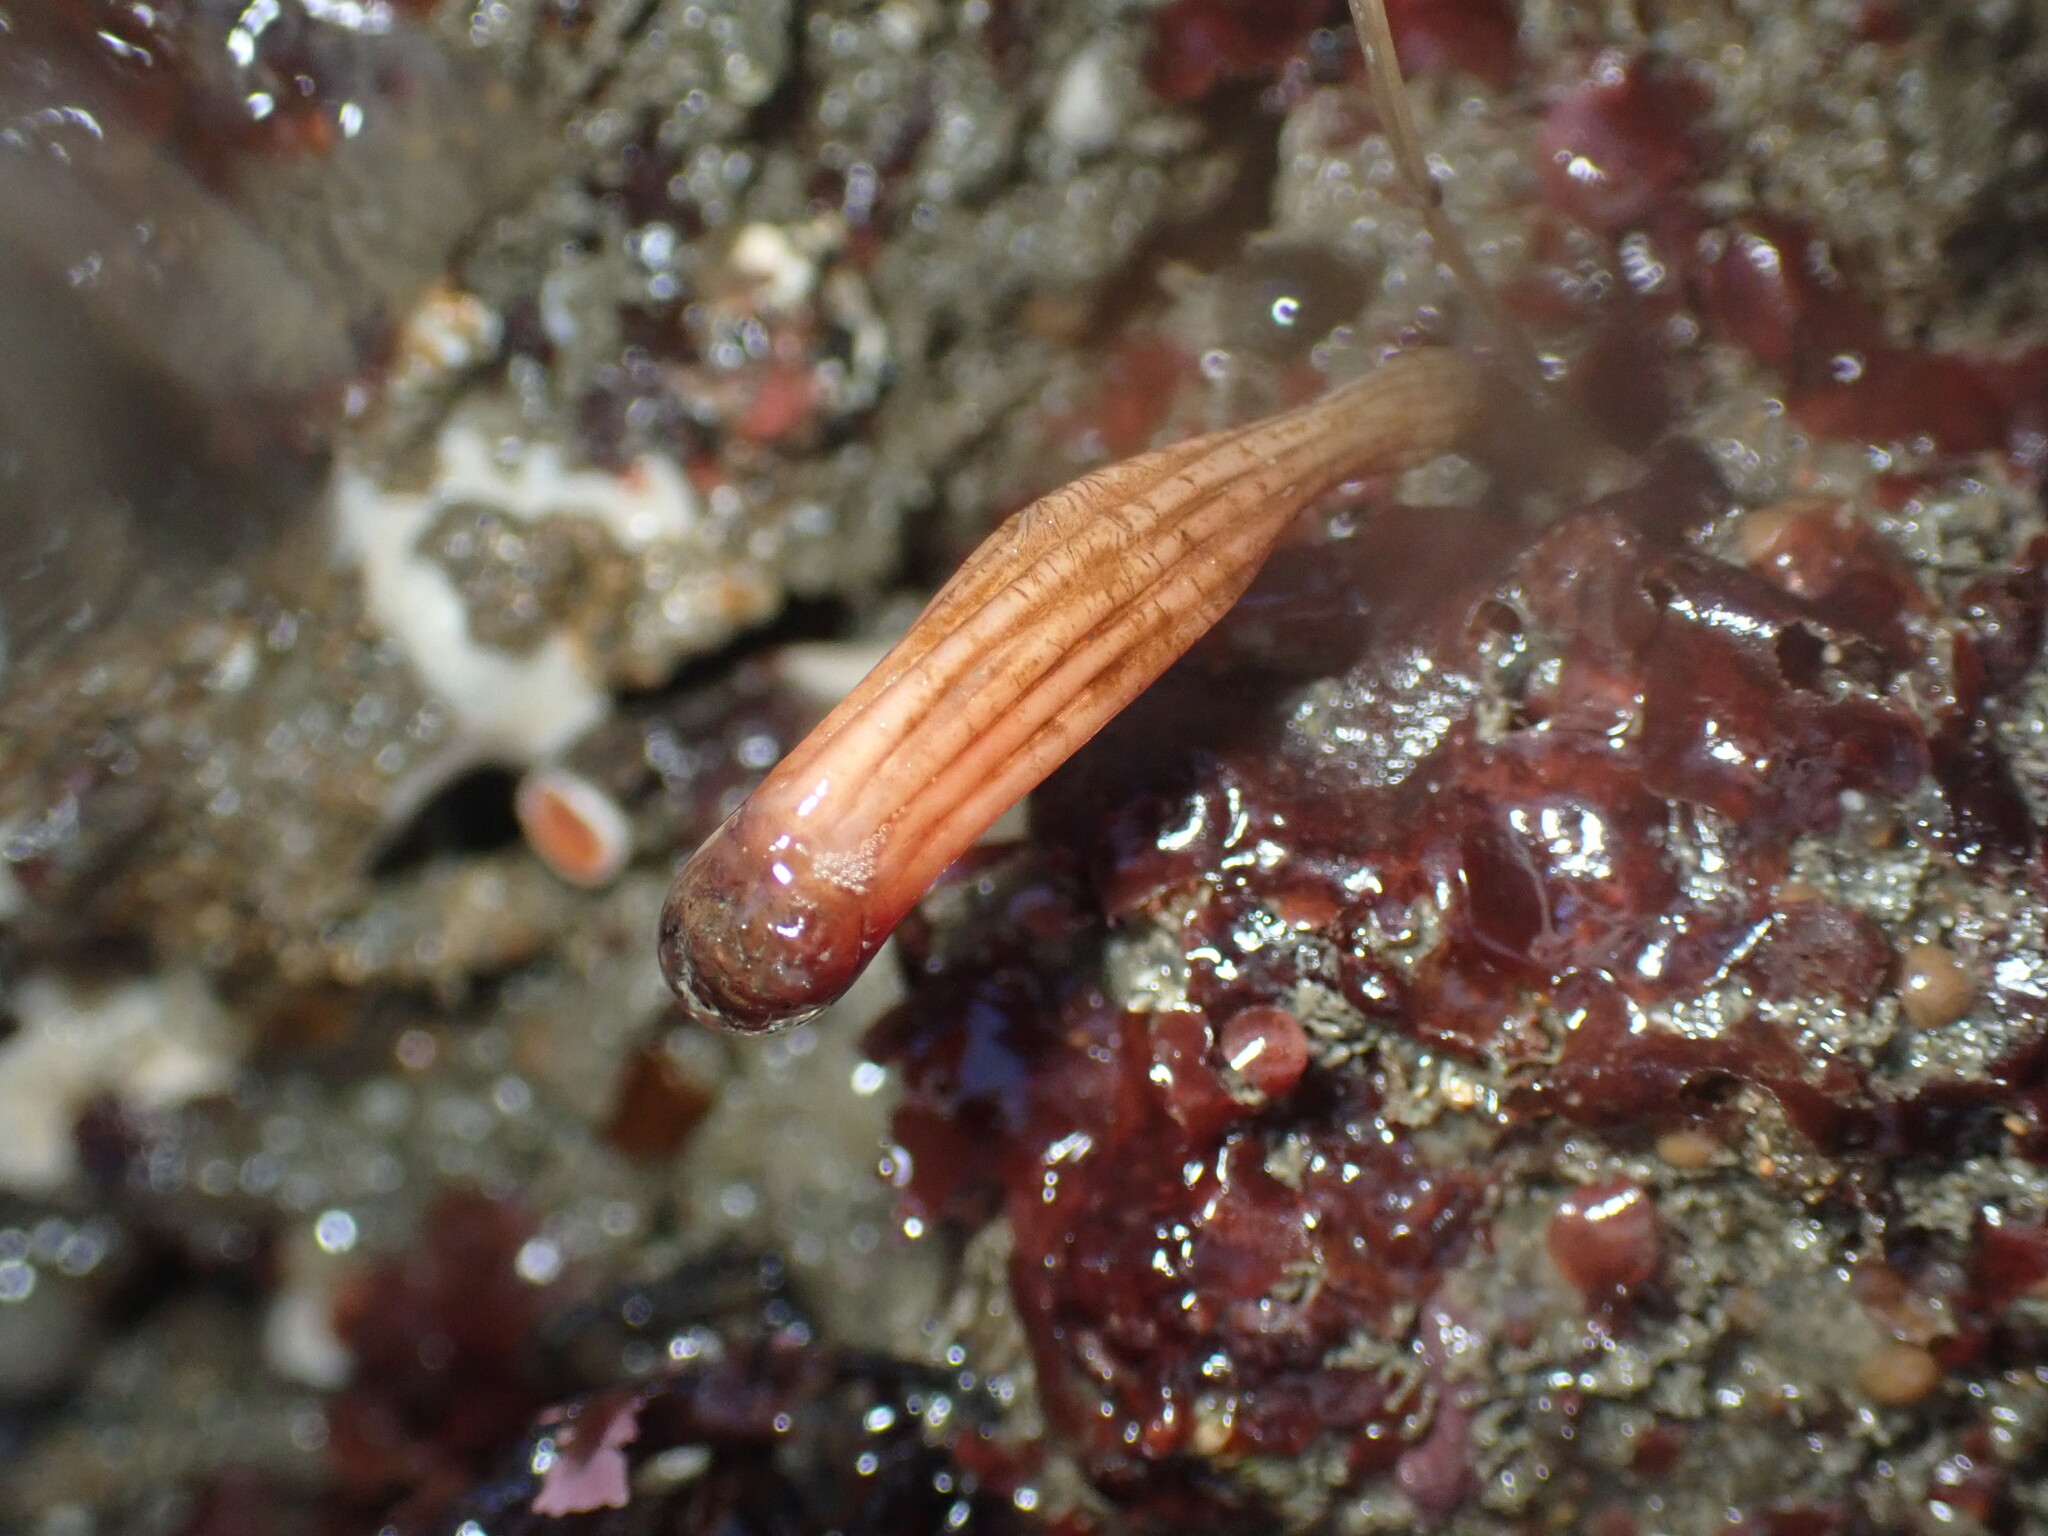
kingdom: Animalia
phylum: Chordata
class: Ascidiacea
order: Stolidobranchia
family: Styelidae
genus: Styela
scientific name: Styela montereyensis
